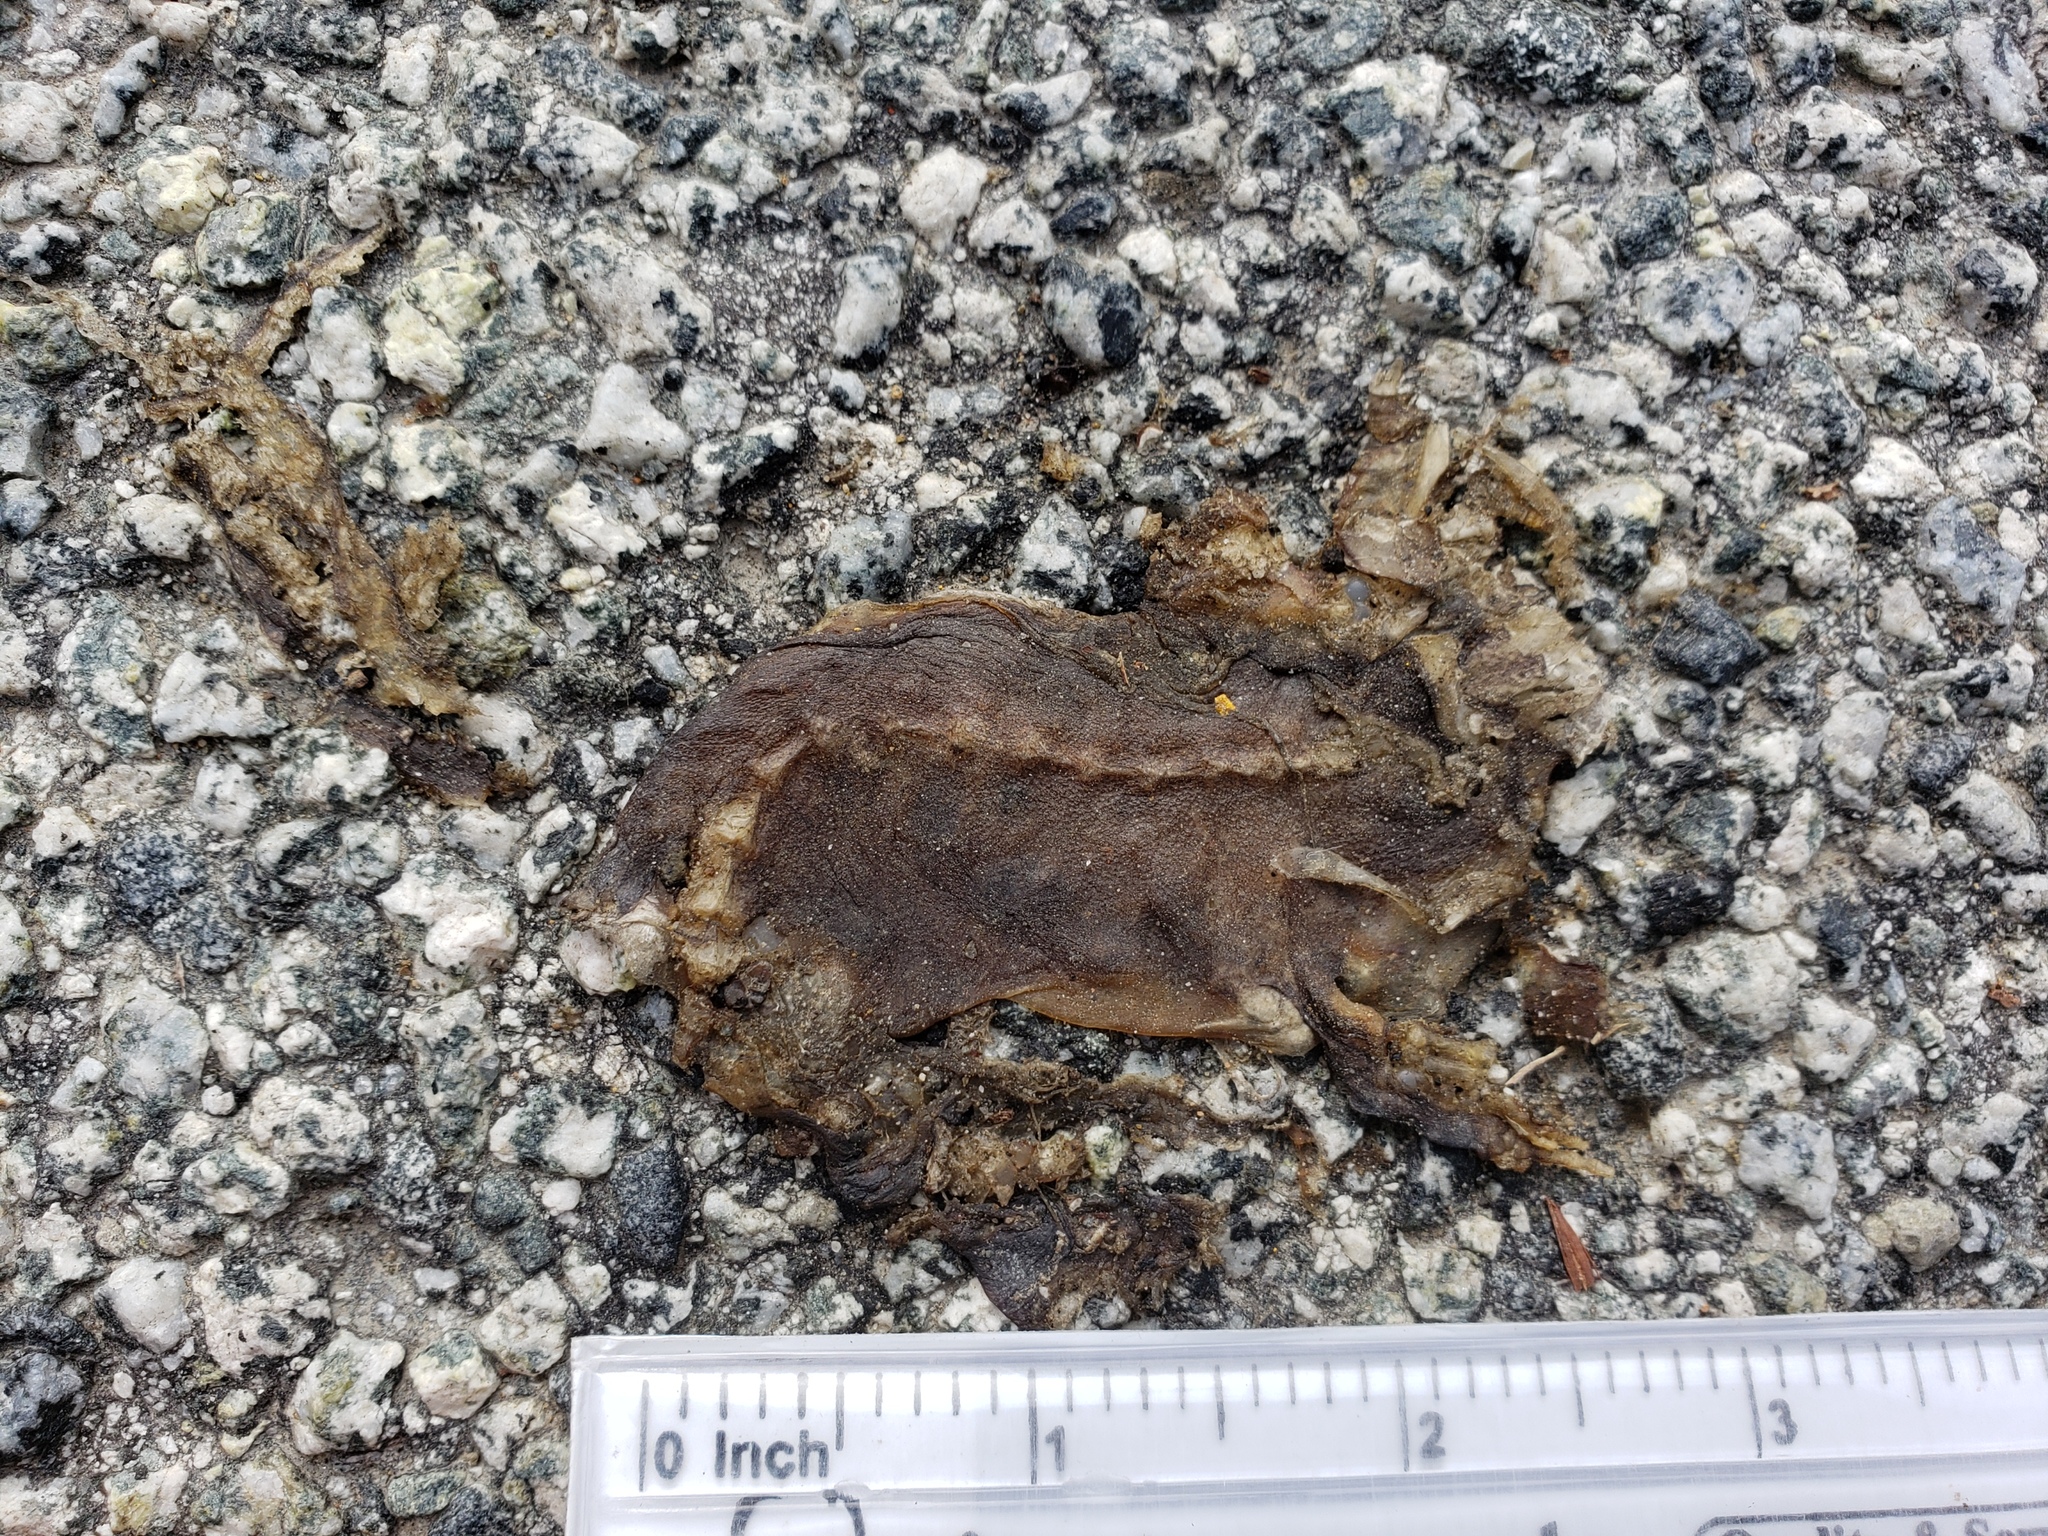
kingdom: Animalia
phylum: Chordata
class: Amphibia
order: Caudata
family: Salamandridae
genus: Taricha
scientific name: Taricha
